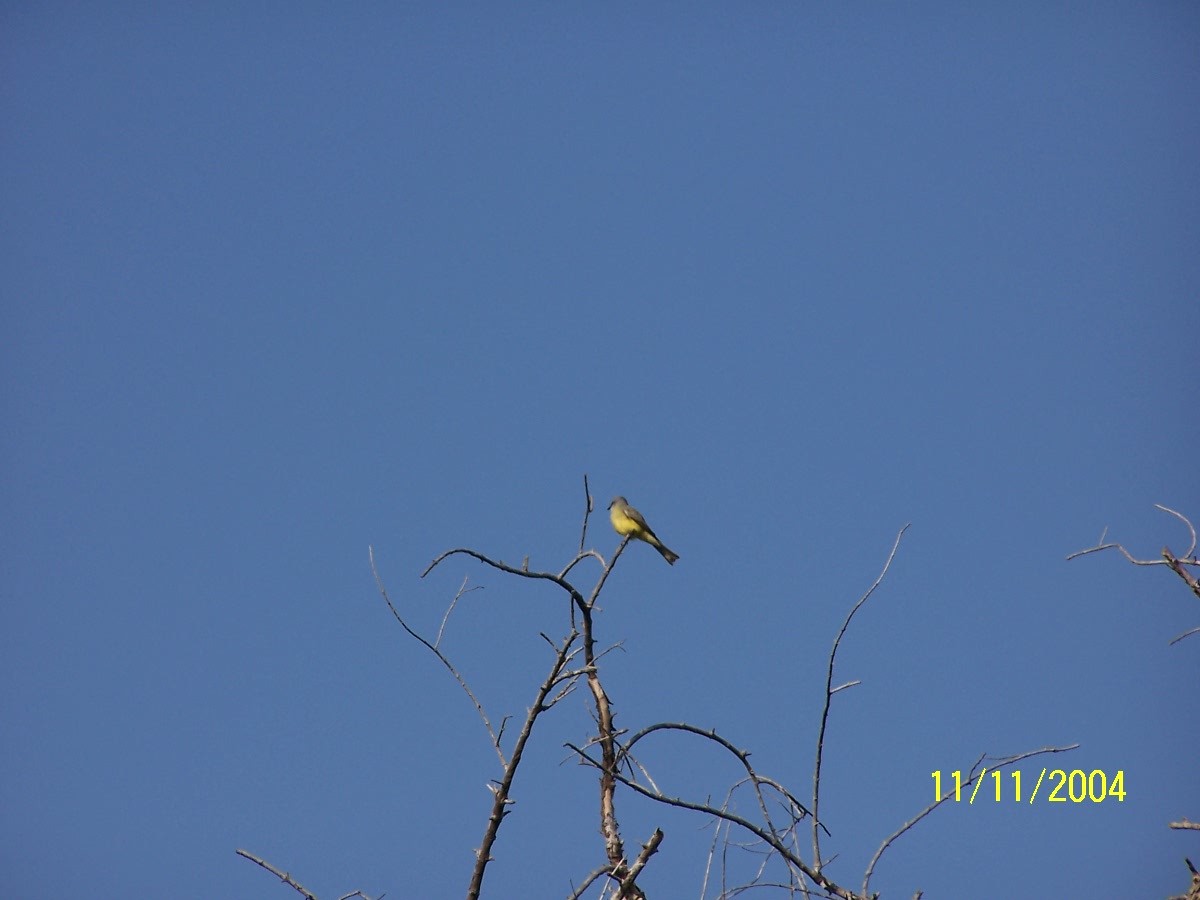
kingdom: Animalia
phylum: Chordata
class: Aves
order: Passeriformes
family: Tyrannidae
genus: Tyrannus
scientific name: Tyrannus melancholicus
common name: Tropical kingbird
